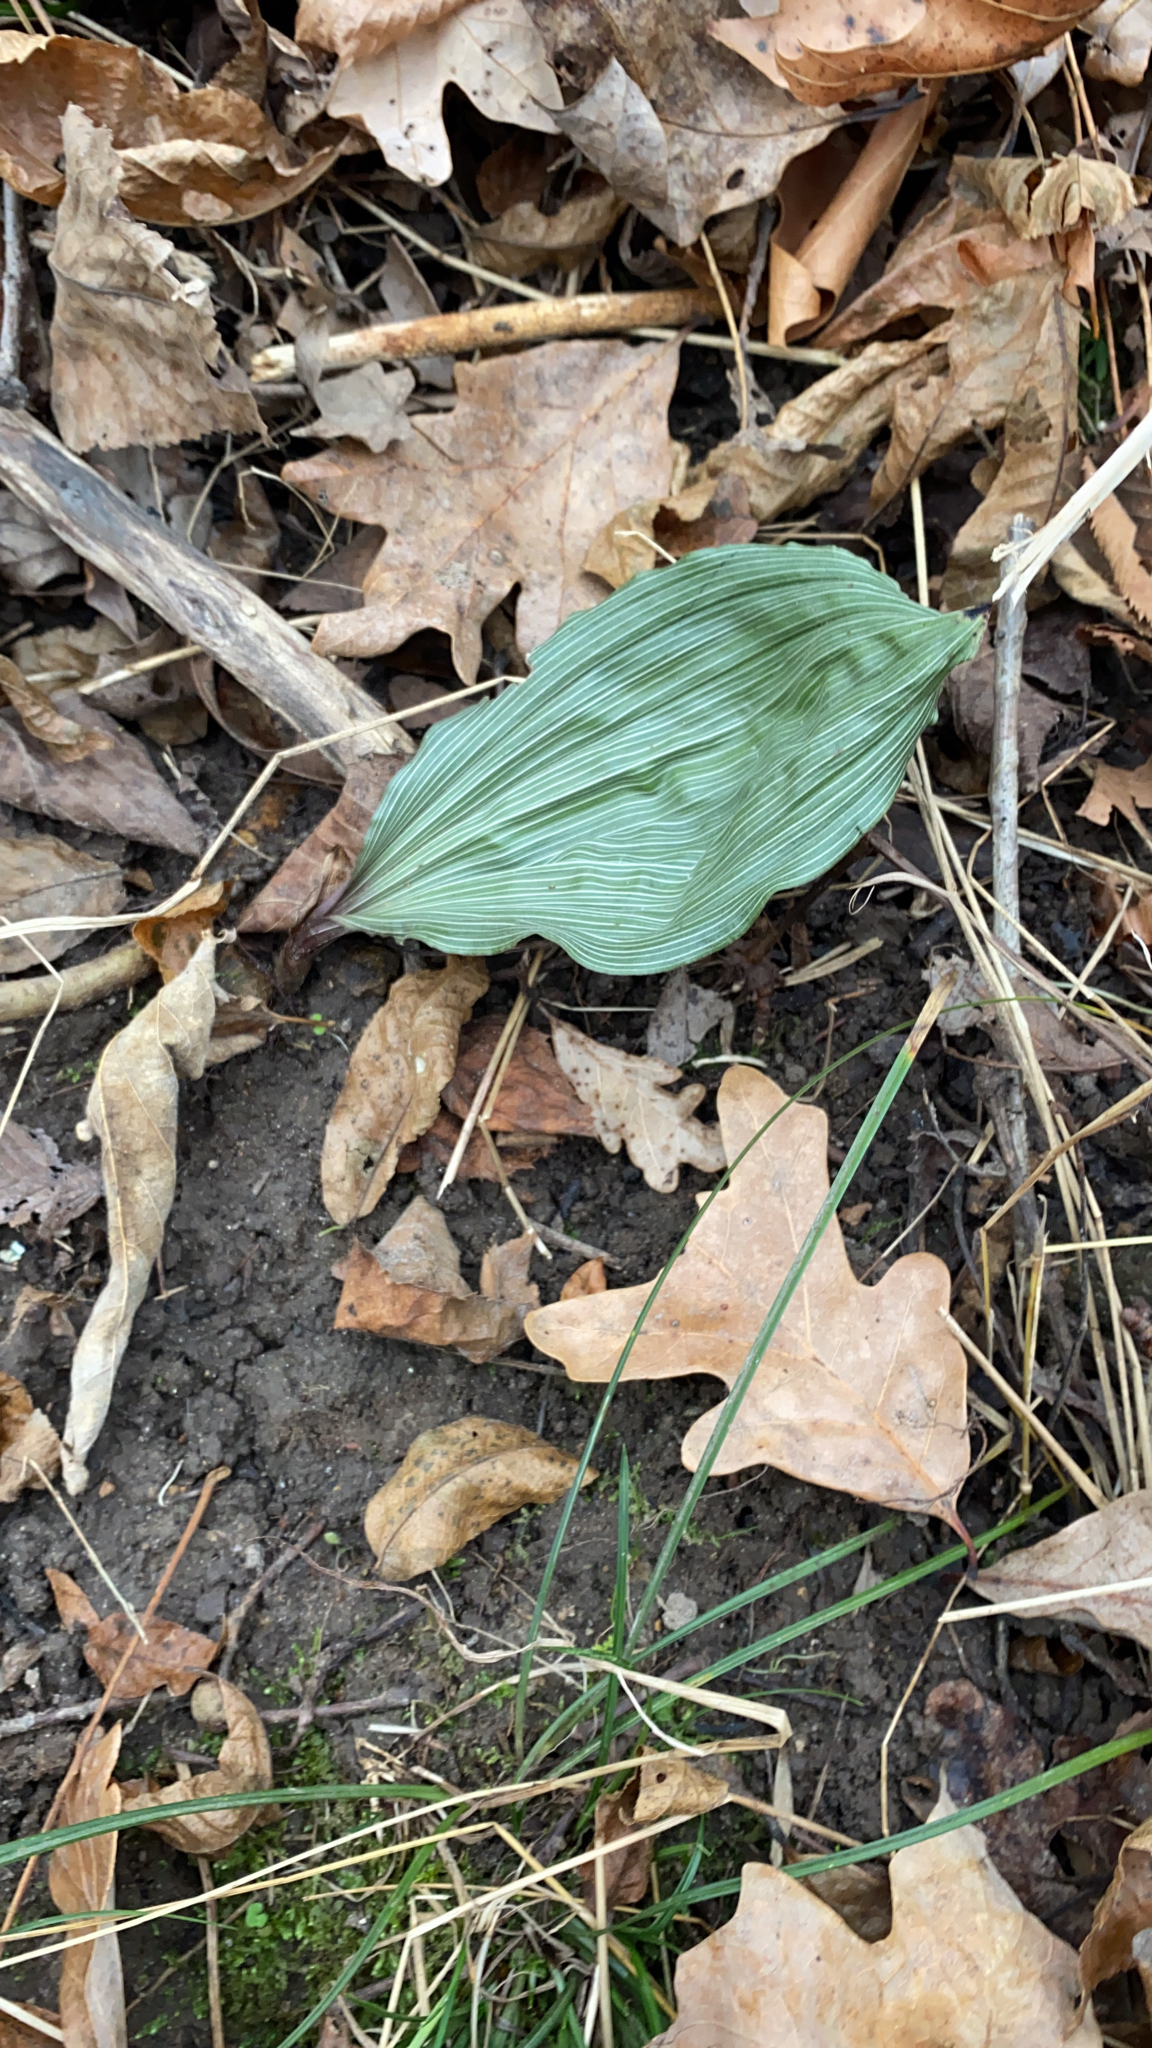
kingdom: Plantae
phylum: Tracheophyta
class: Liliopsida
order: Asparagales
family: Orchidaceae
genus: Aplectrum
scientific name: Aplectrum hyemale
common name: Adam-and-eve
